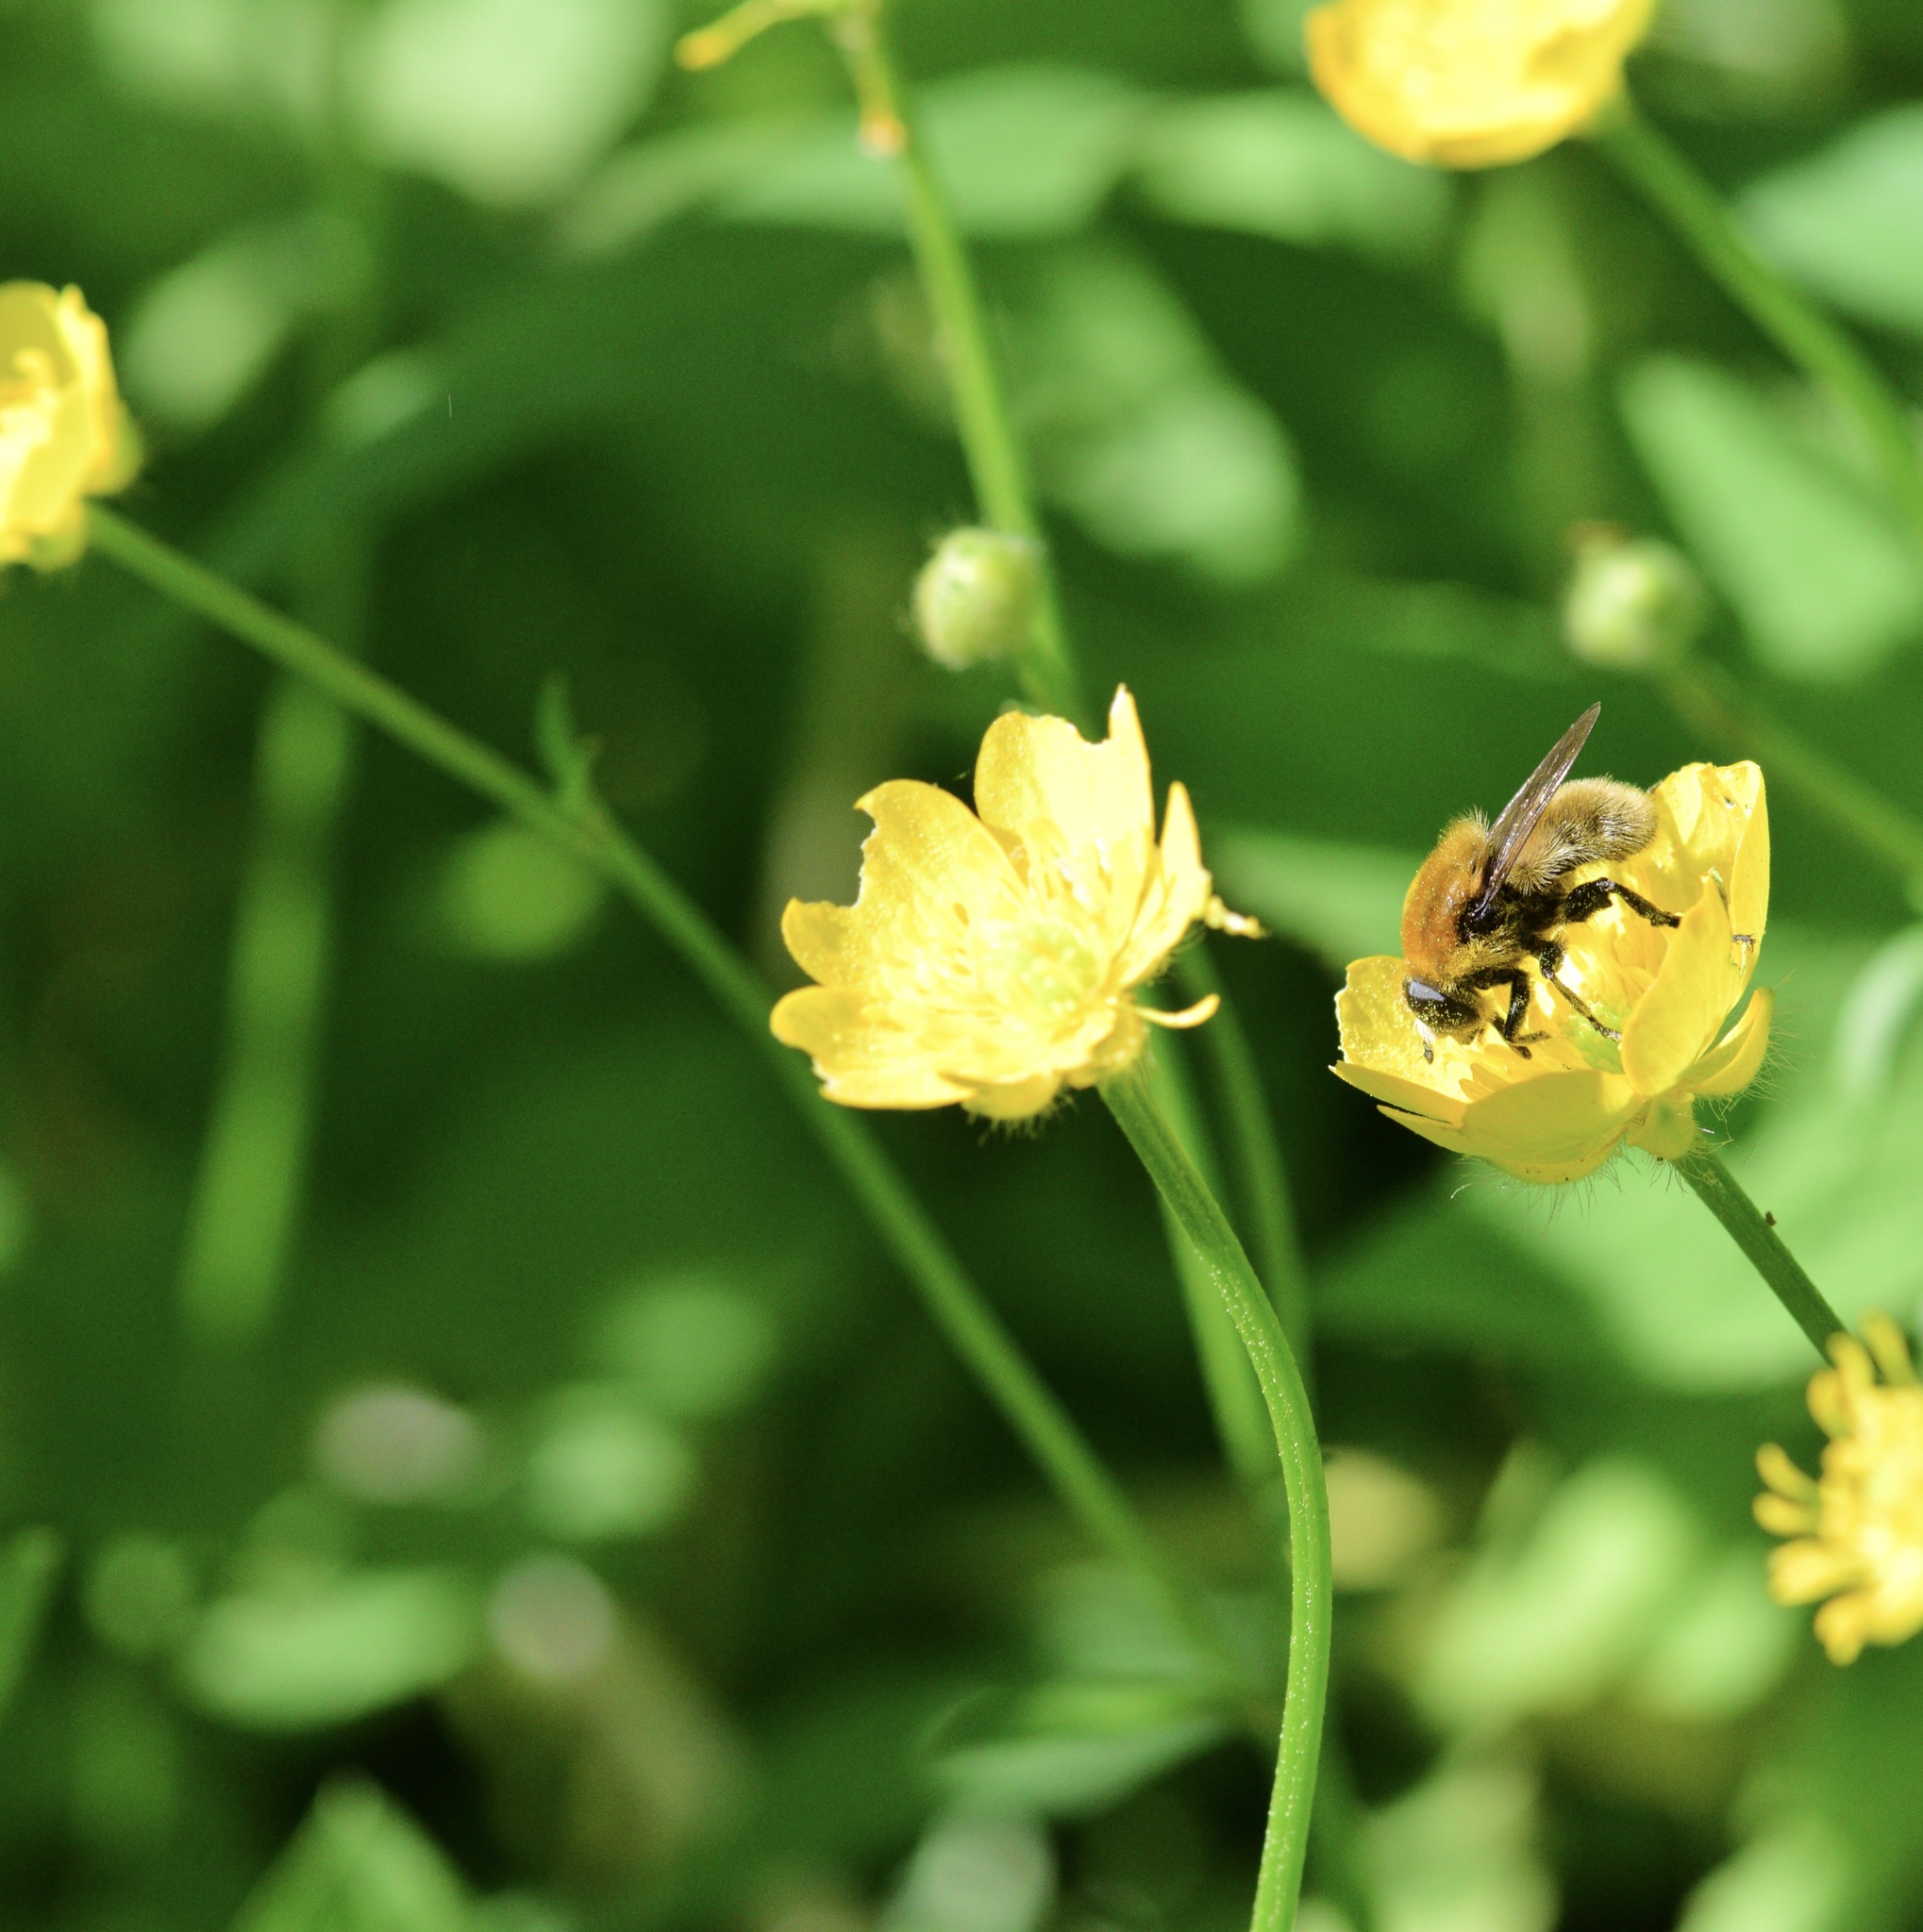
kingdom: Animalia
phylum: Arthropoda
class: Insecta
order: Diptera
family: Syrphidae
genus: Merodon
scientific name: Merodon equestris
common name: Greater bulb-fly
